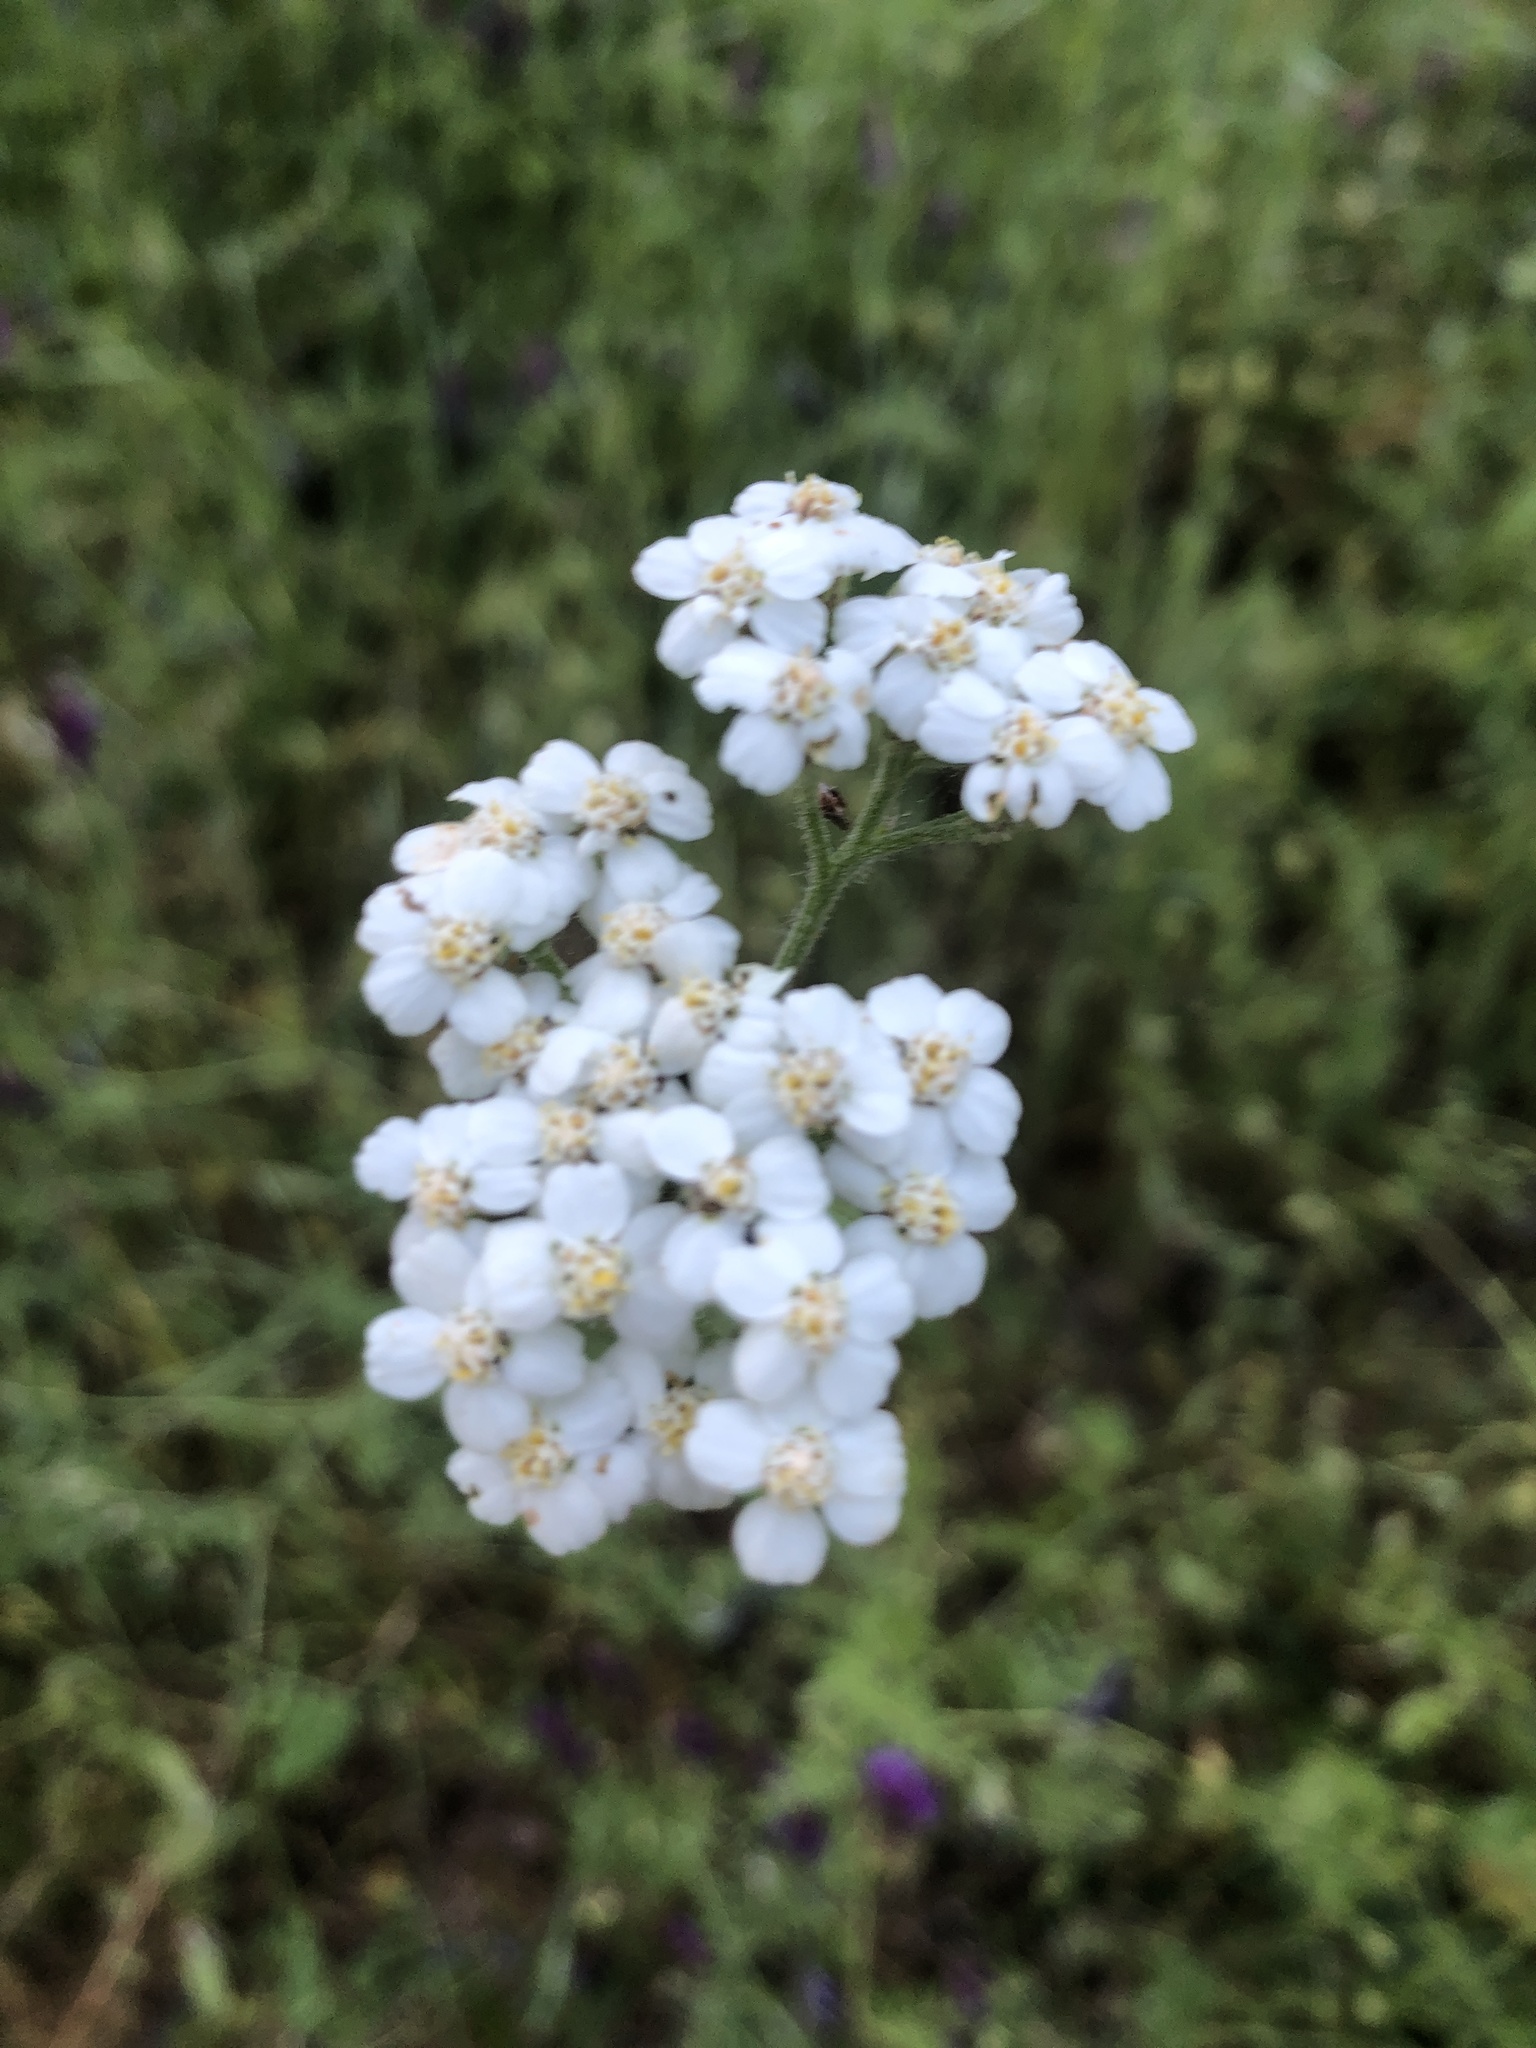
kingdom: Plantae
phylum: Tracheophyta
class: Magnoliopsida
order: Asterales
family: Asteraceae
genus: Achillea
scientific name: Achillea millefolium
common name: Yarrow
